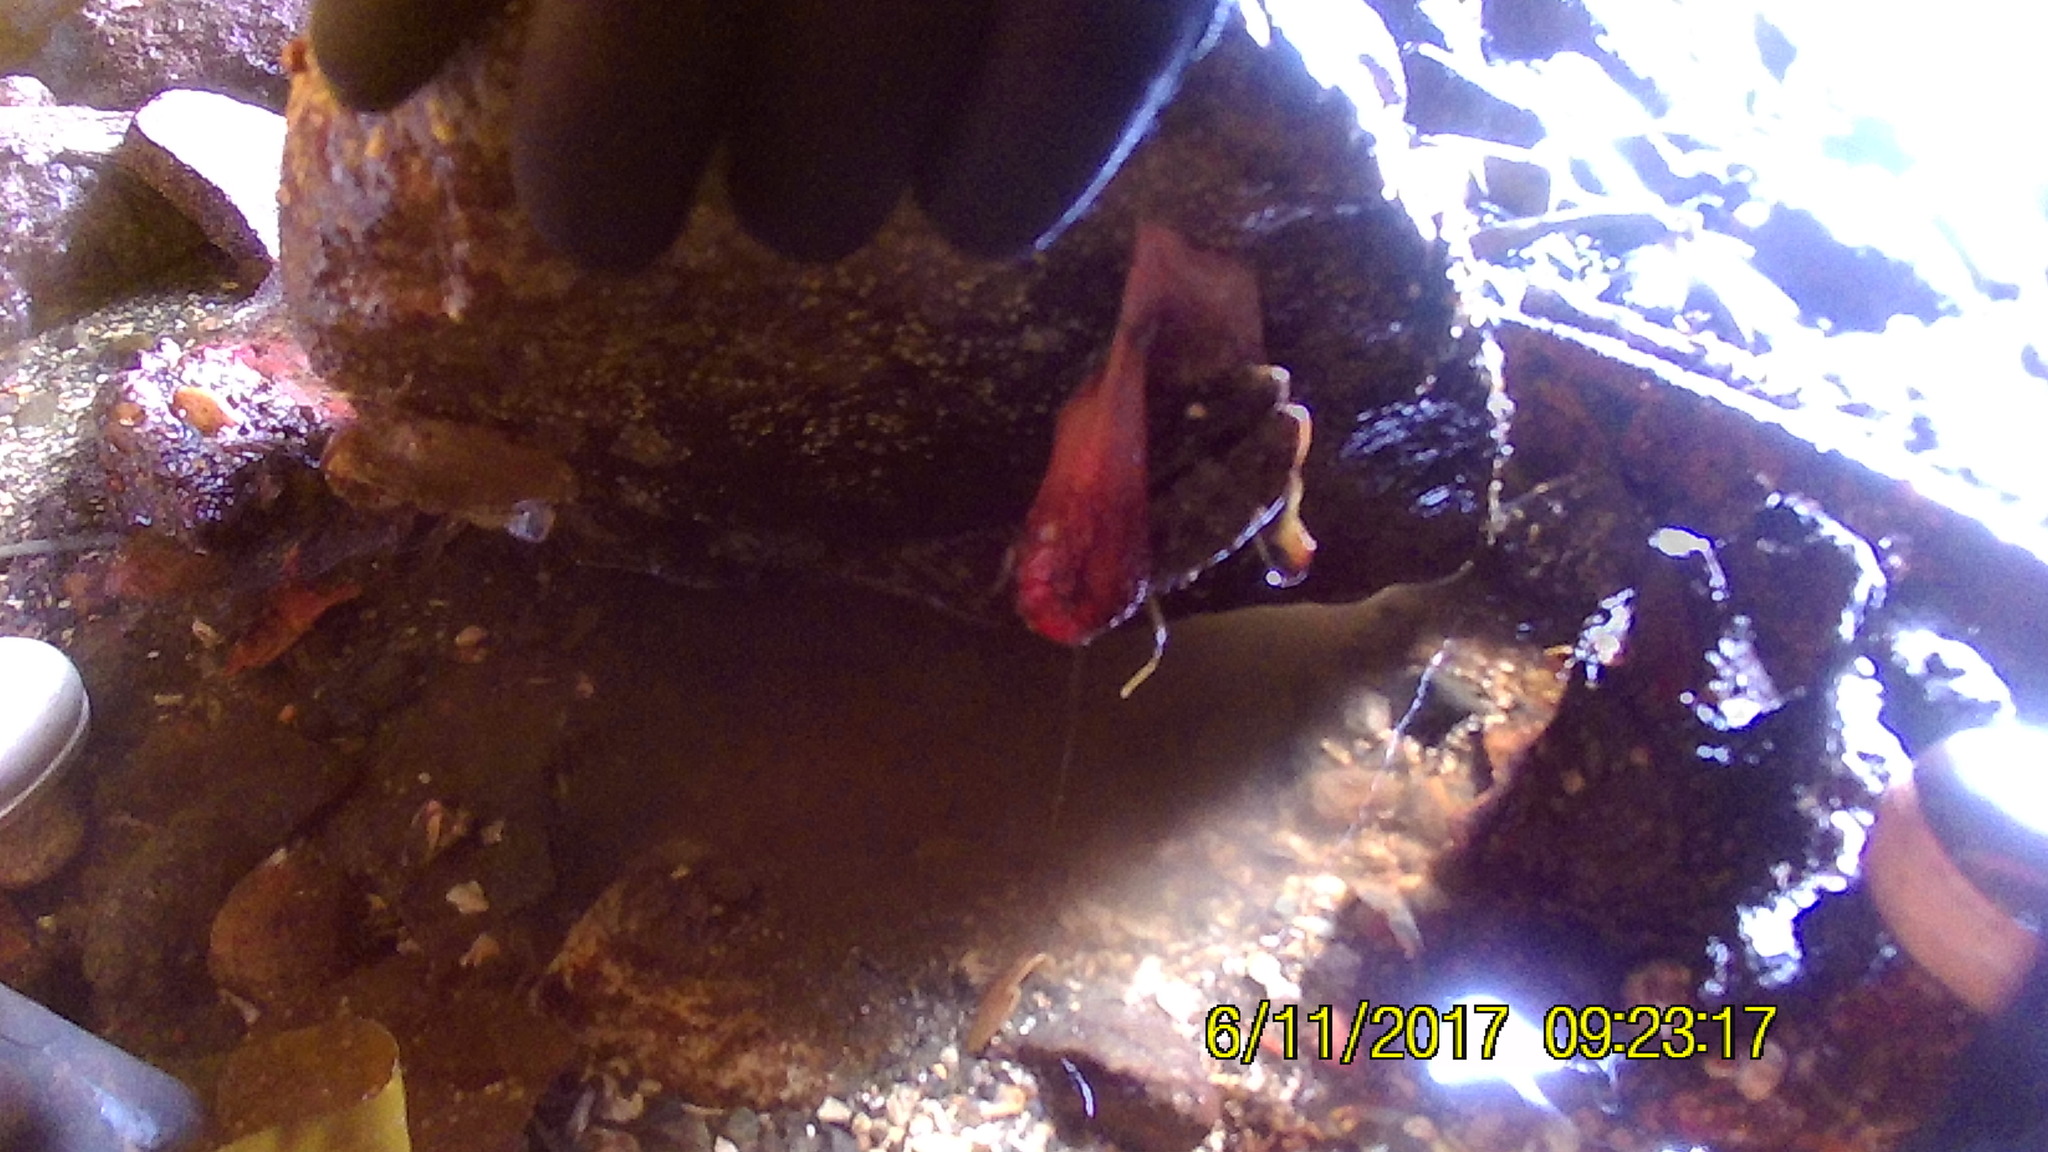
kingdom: Animalia
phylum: Echinodermata
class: Holothuroidea
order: Dendrochirotida
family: Cucumariidae
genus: Cucumaria
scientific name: Cucumaria miniata
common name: Orange sea cucumber
